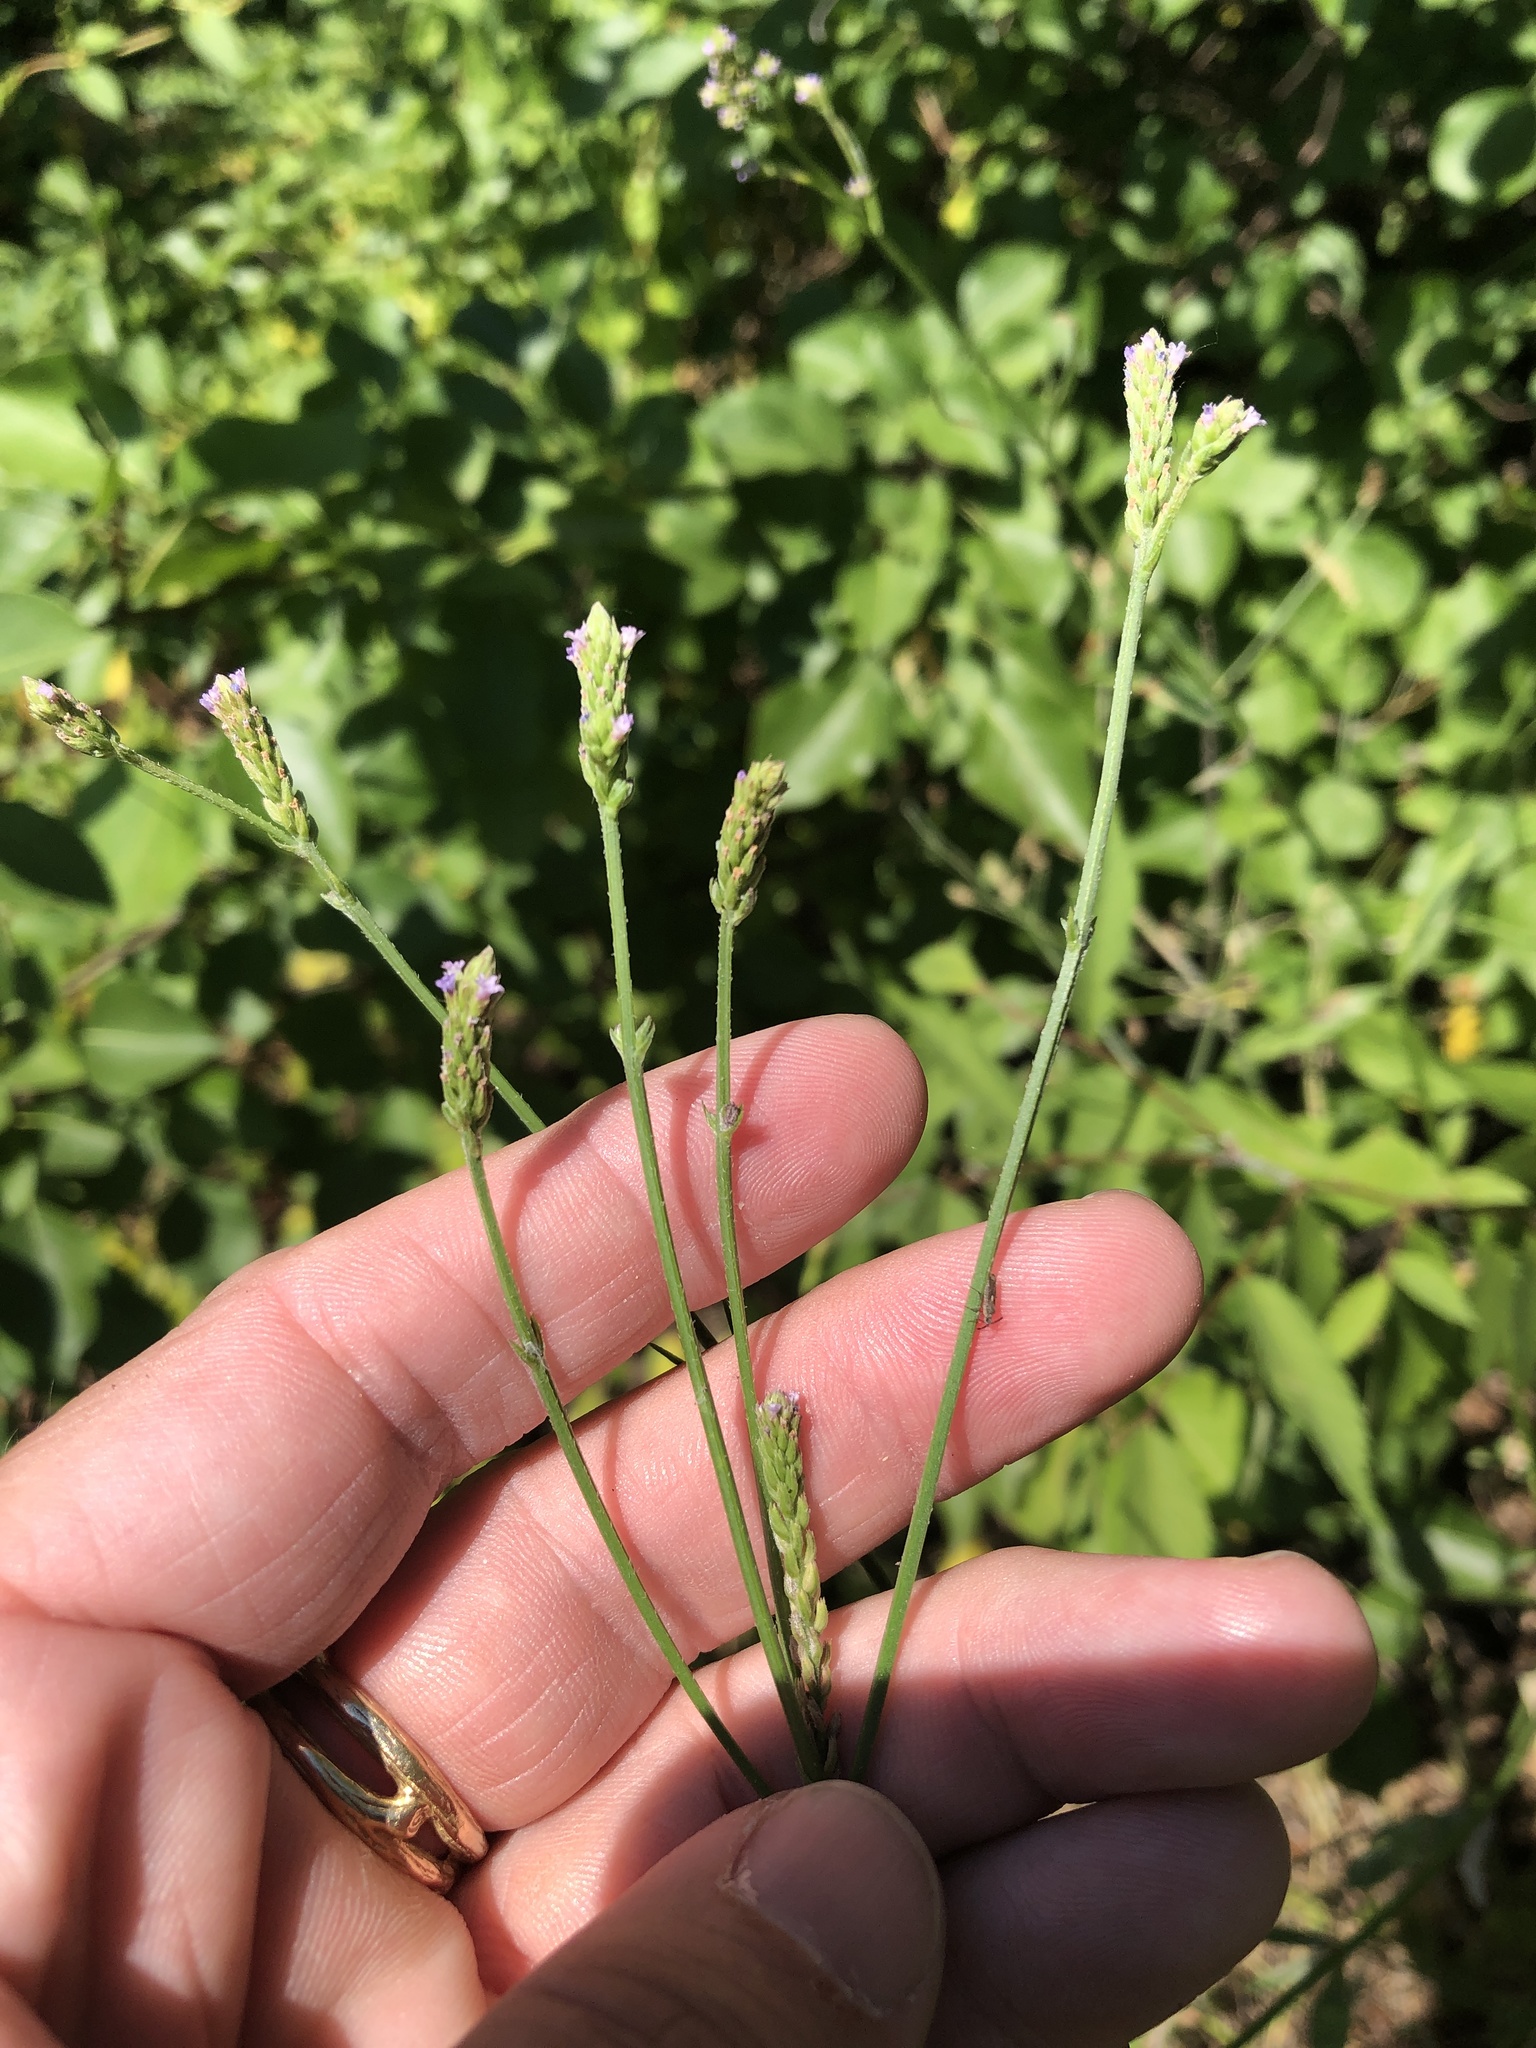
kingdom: Plantae
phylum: Tracheophyta
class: Magnoliopsida
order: Lamiales
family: Verbenaceae
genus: Verbena
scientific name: Verbena brasiliensis
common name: Brazilian vervain
